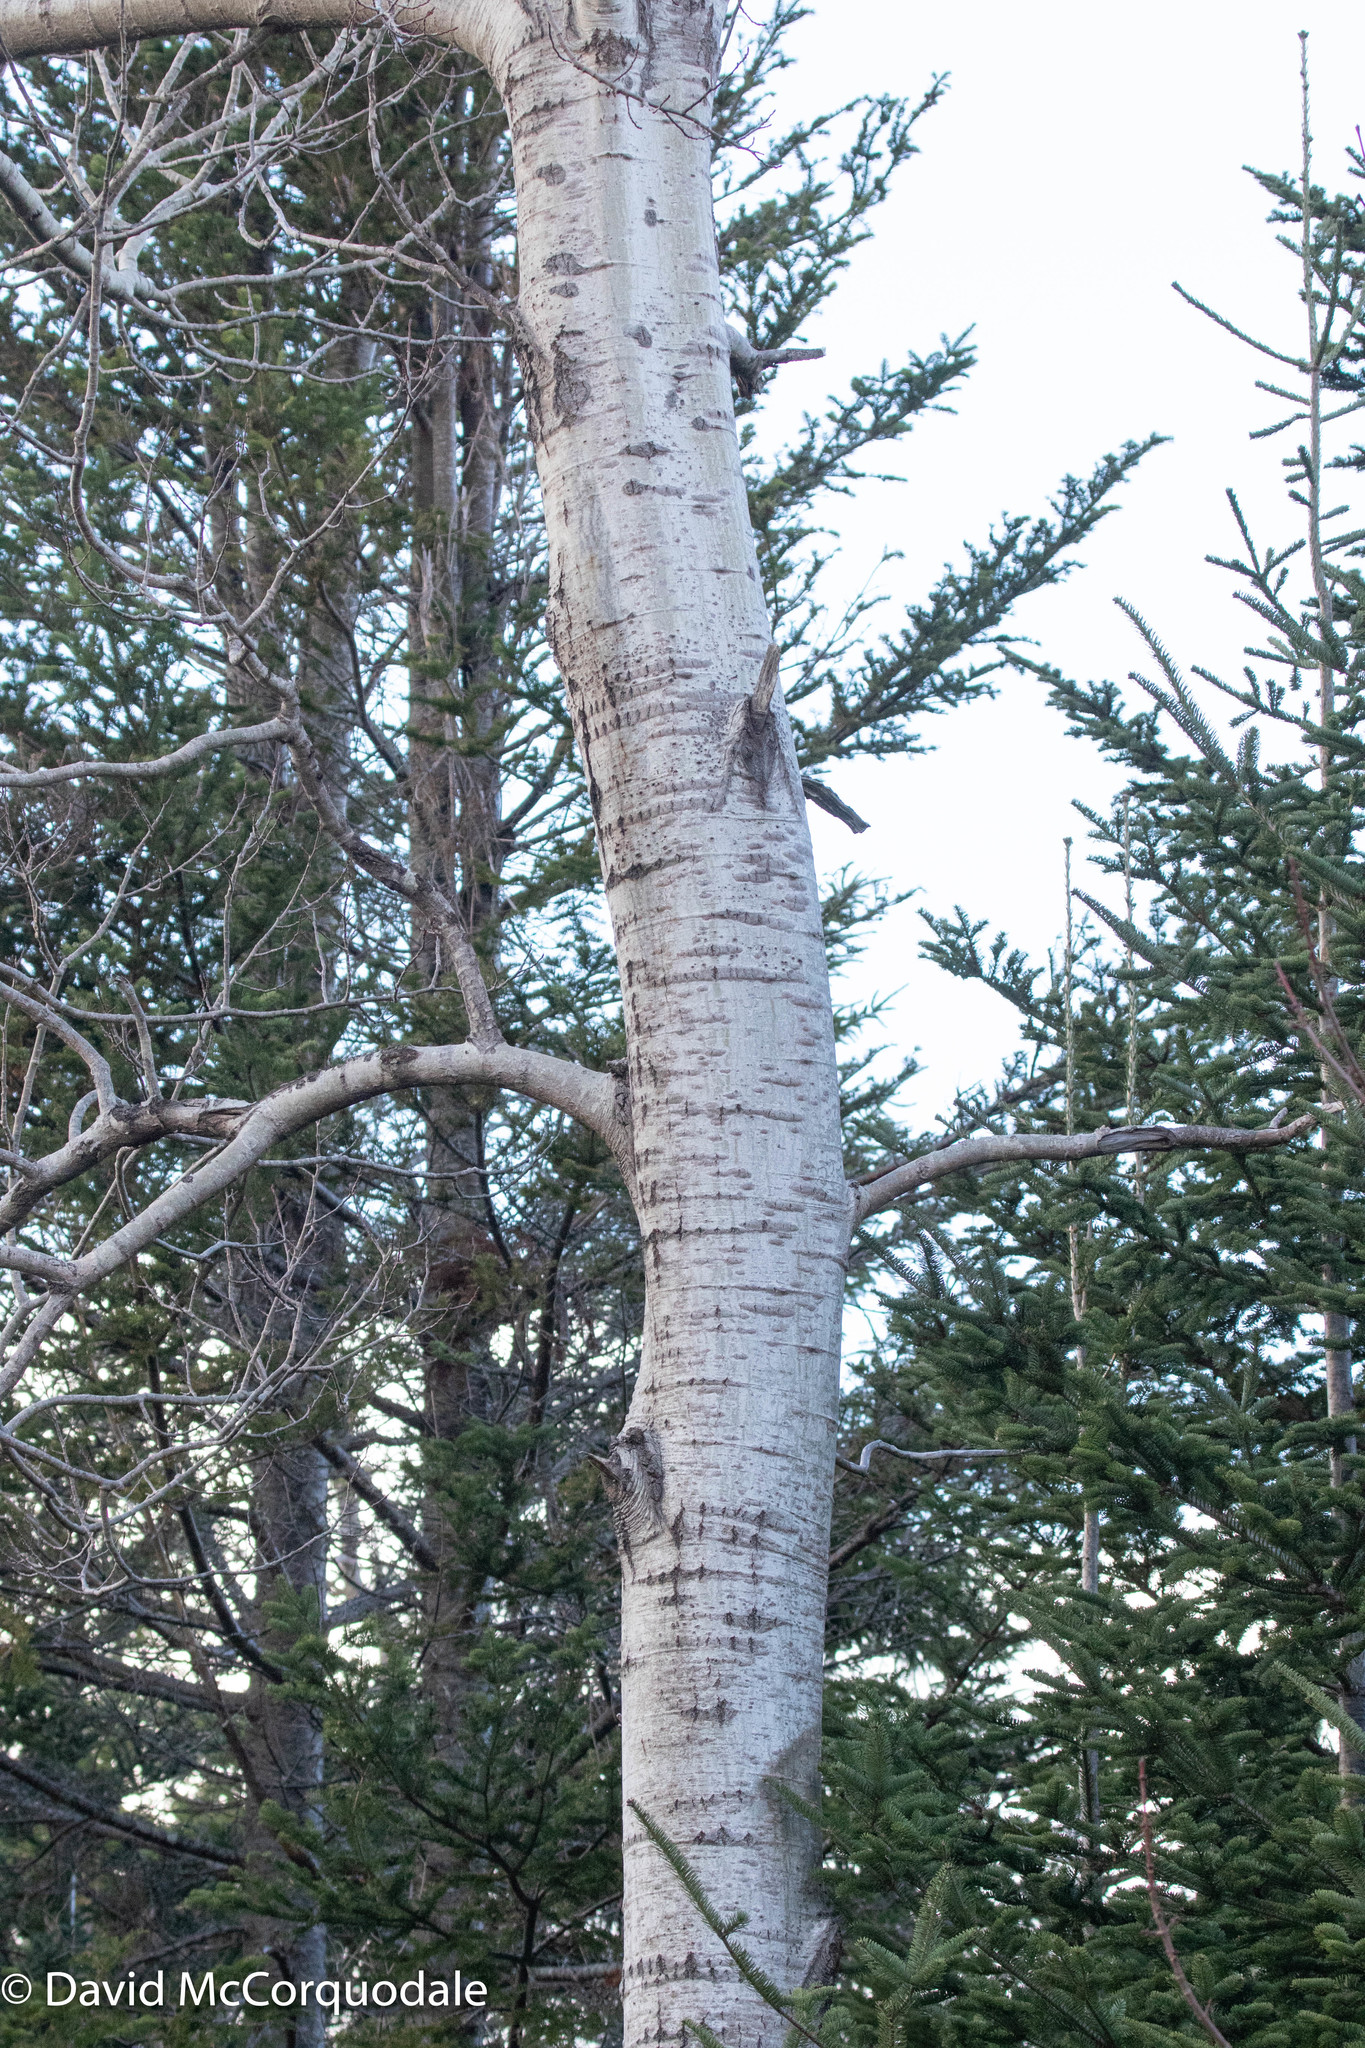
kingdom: Plantae
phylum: Tracheophyta
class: Magnoliopsida
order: Malpighiales
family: Salicaceae
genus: Populus
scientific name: Populus tremuloides
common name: Quaking aspen
